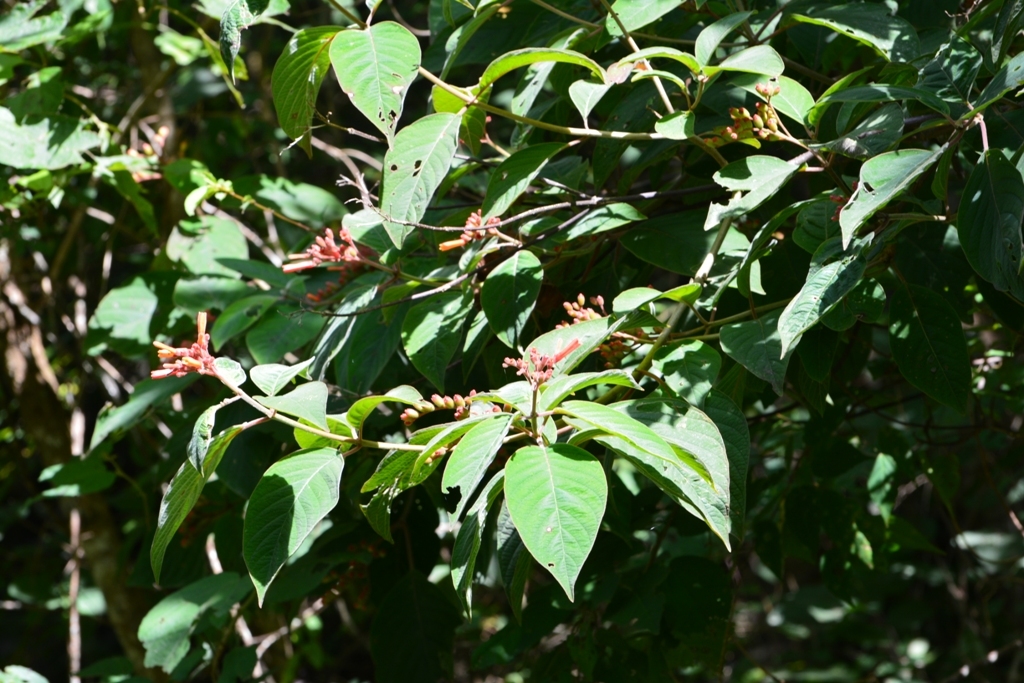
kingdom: Plantae
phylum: Tracheophyta
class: Magnoliopsida
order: Gentianales
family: Rubiaceae
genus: Hamelia
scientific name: Hamelia patens
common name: Redhead
